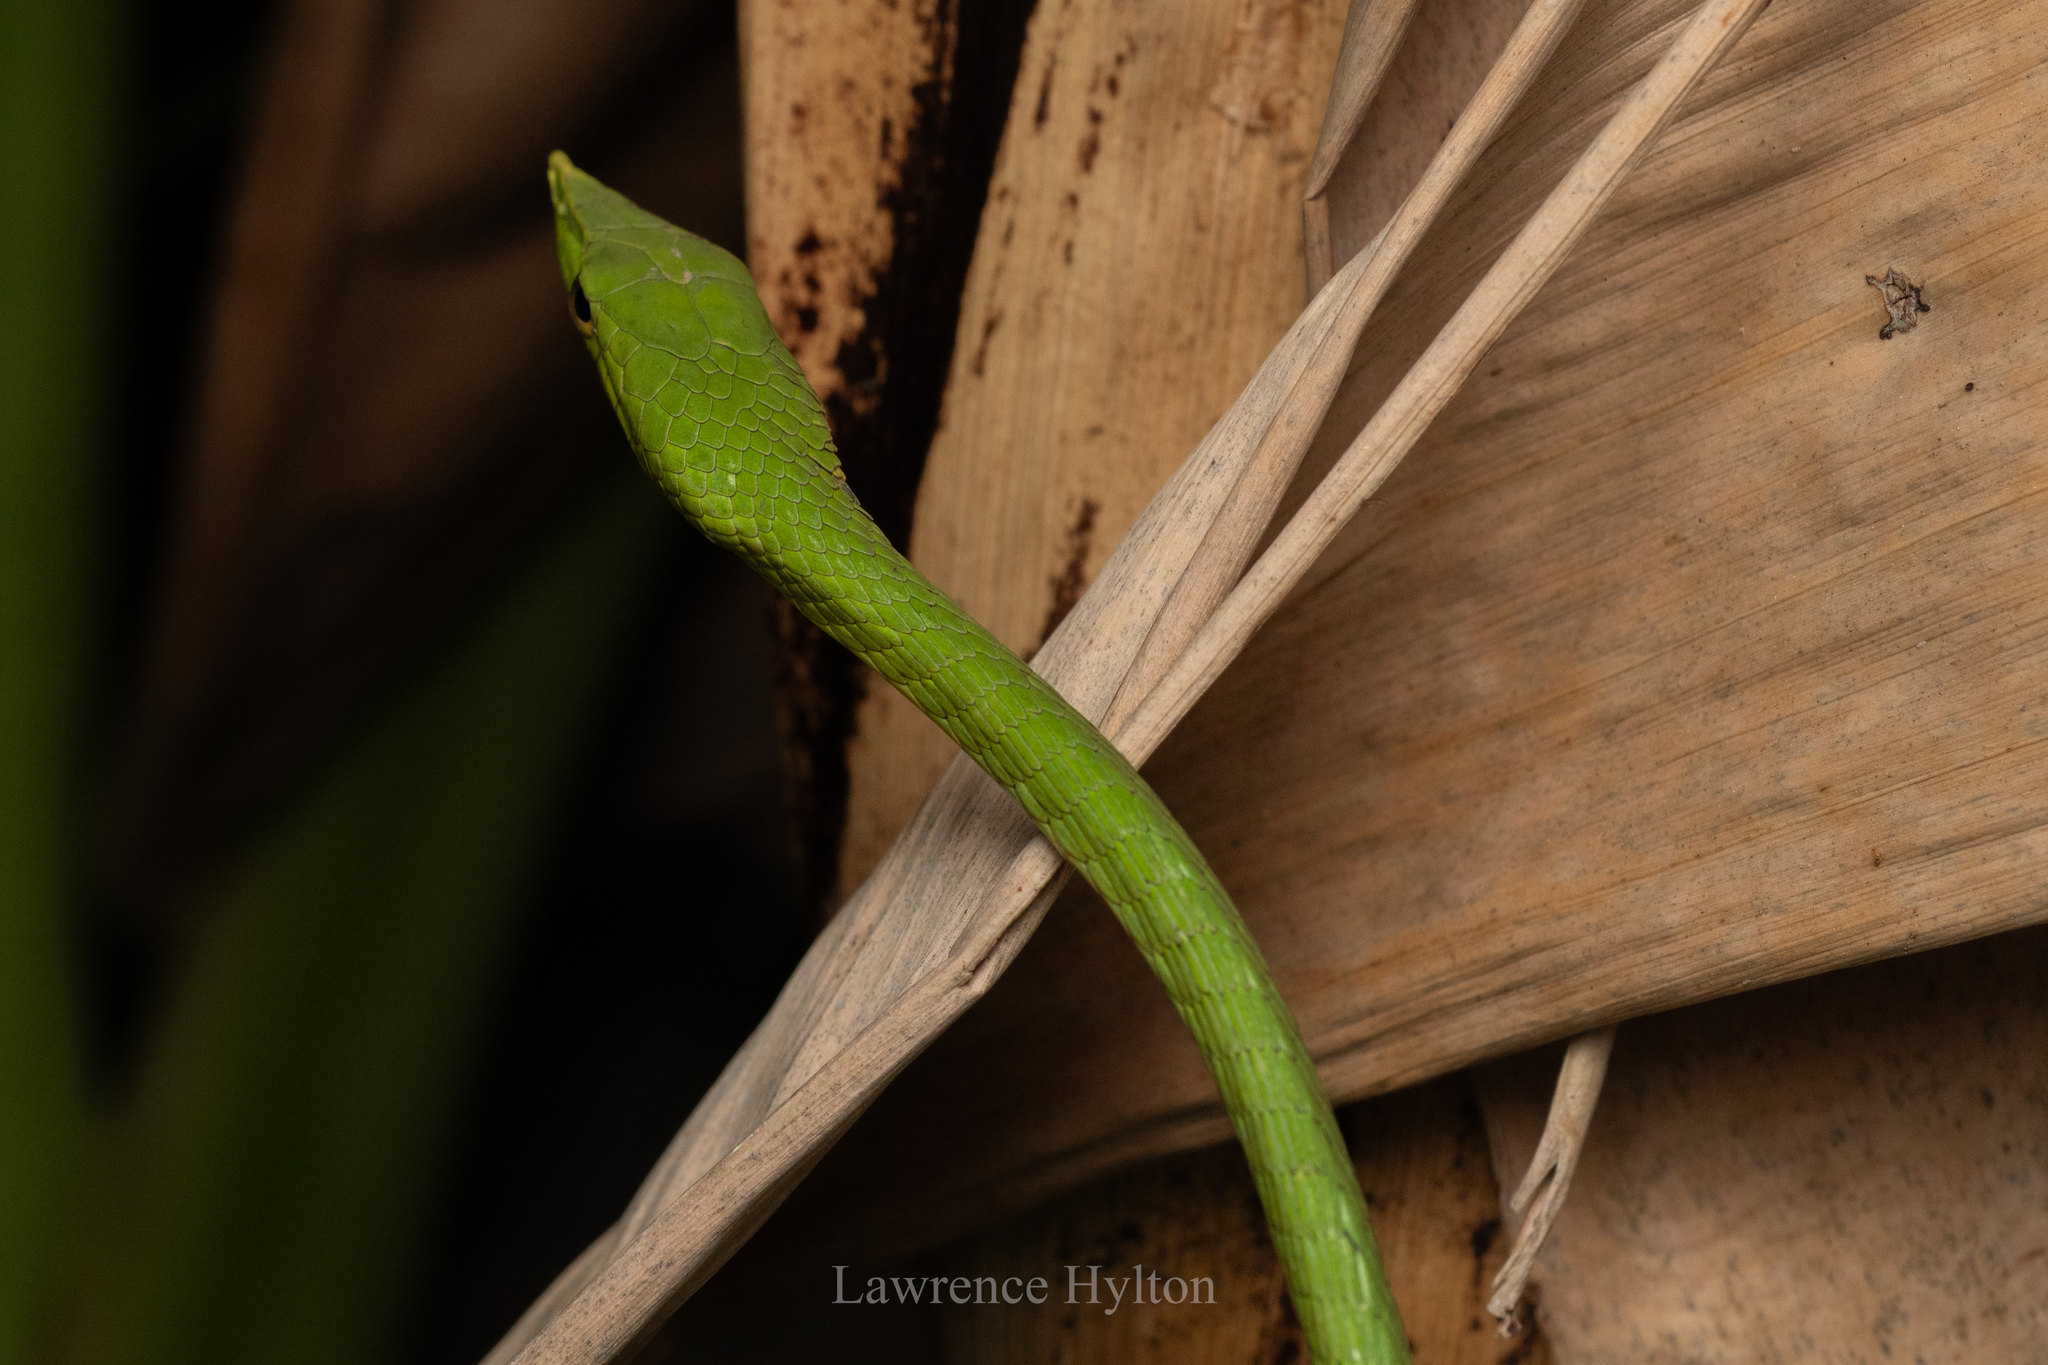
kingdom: Animalia
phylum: Chordata
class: Squamata
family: Colubridae
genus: Ahaetulla
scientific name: Ahaetulla
